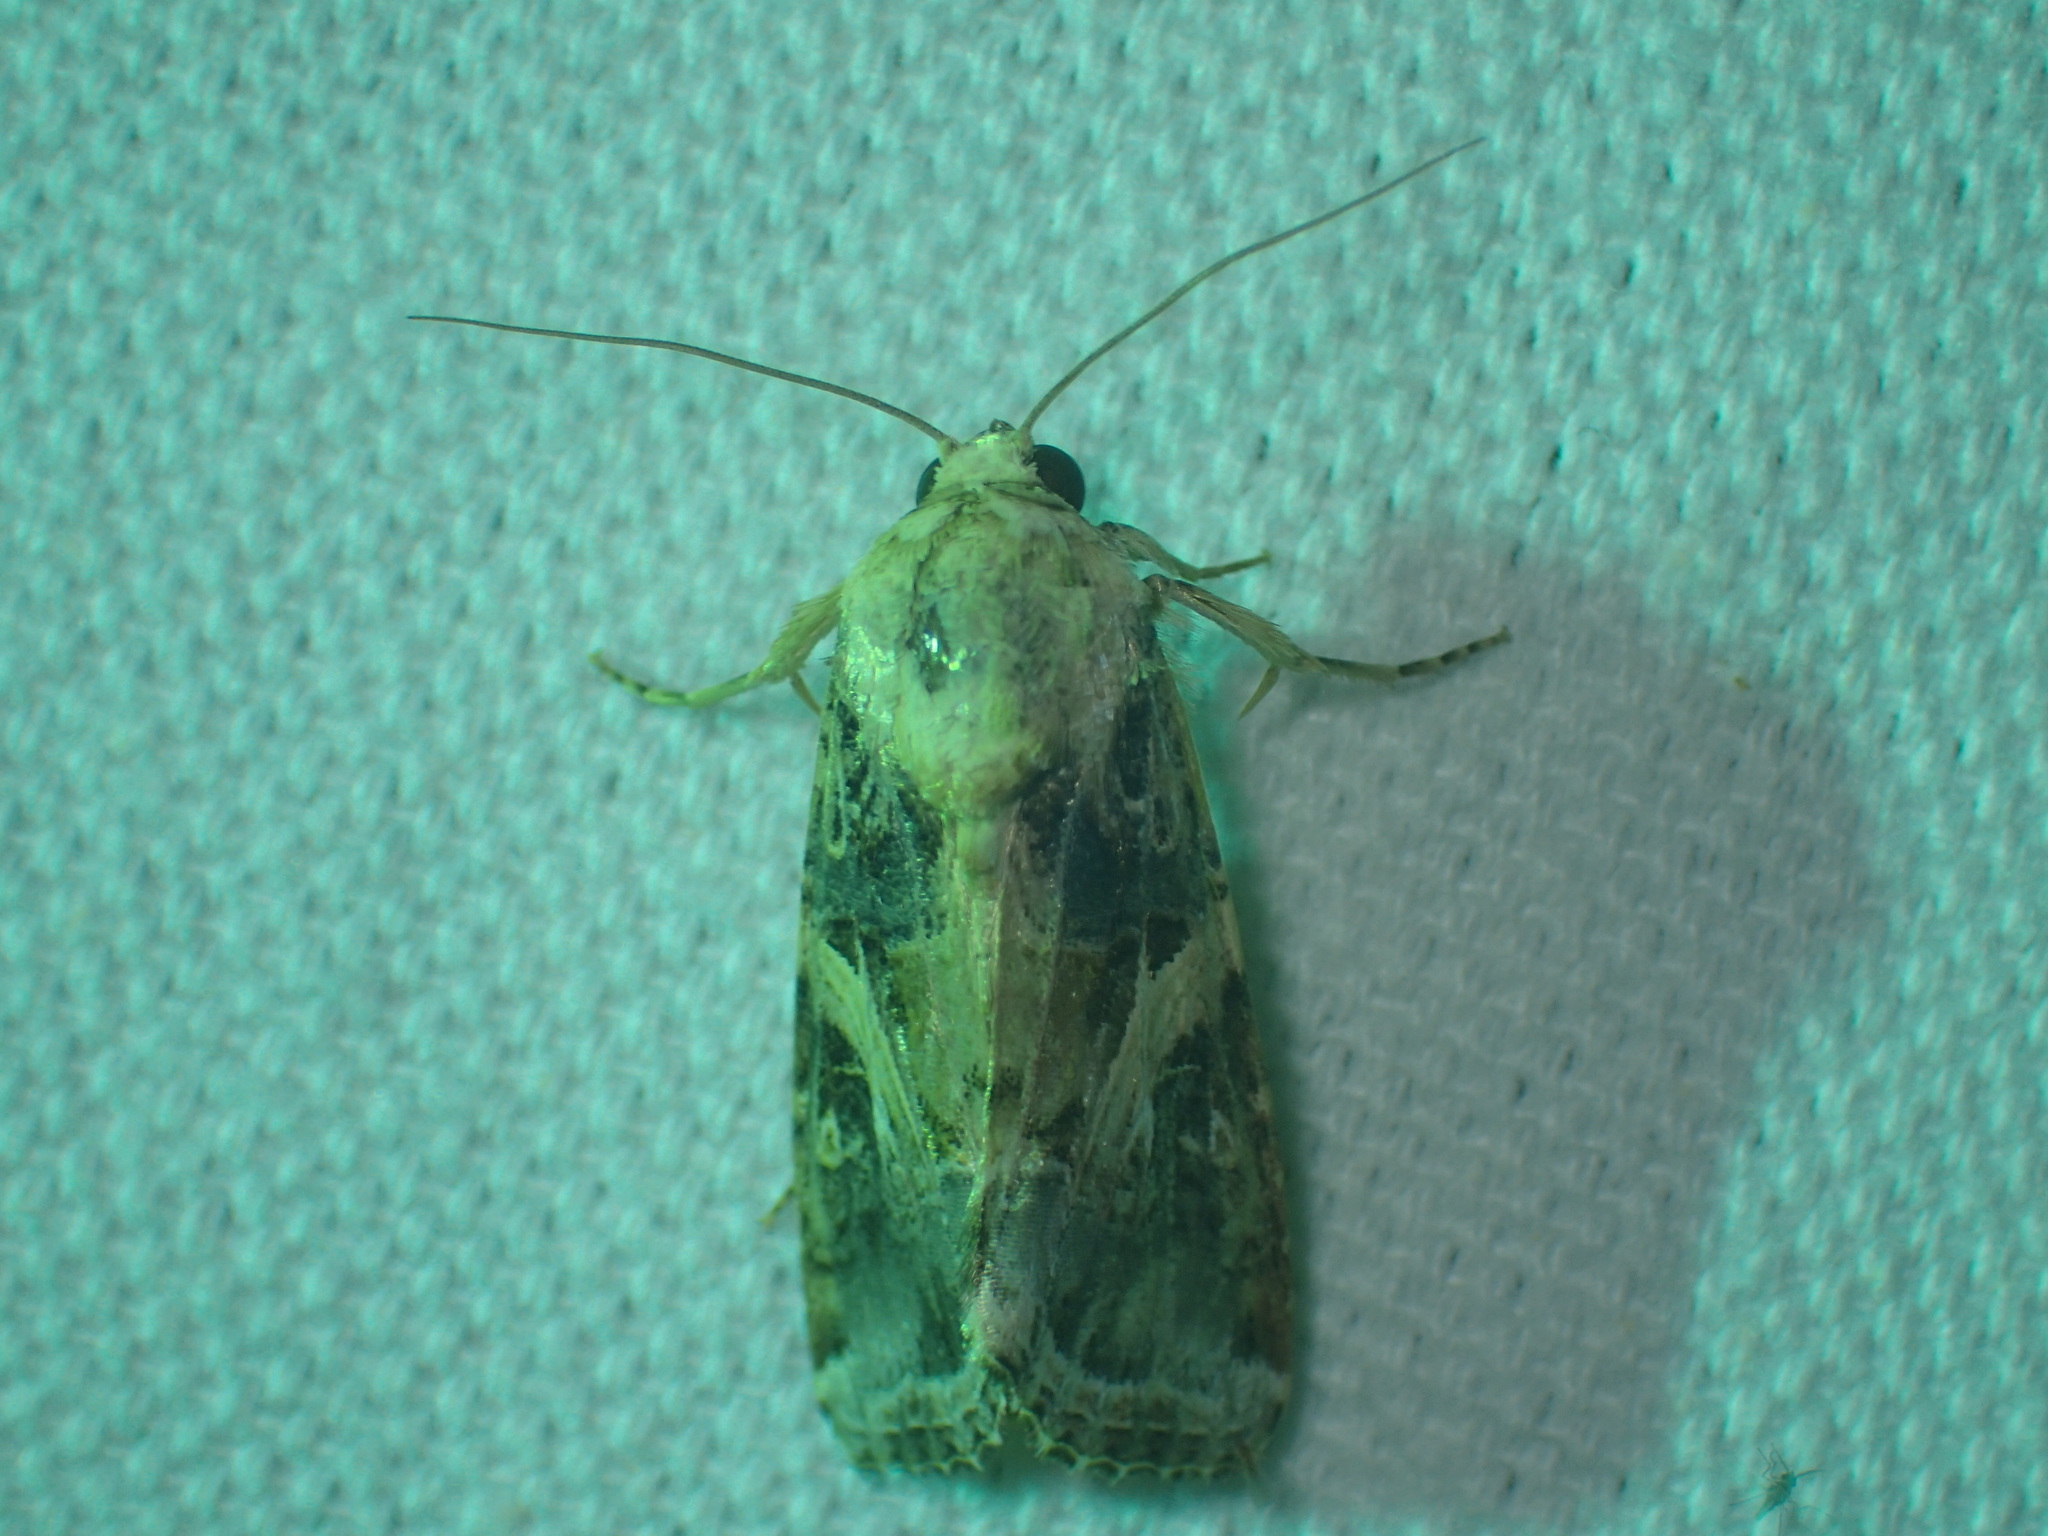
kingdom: Animalia
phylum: Arthropoda
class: Insecta
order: Lepidoptera
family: Noctuidae
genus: Spodoptera
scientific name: Spodoptera ornithogalli
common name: Yellow-striped armyworm
